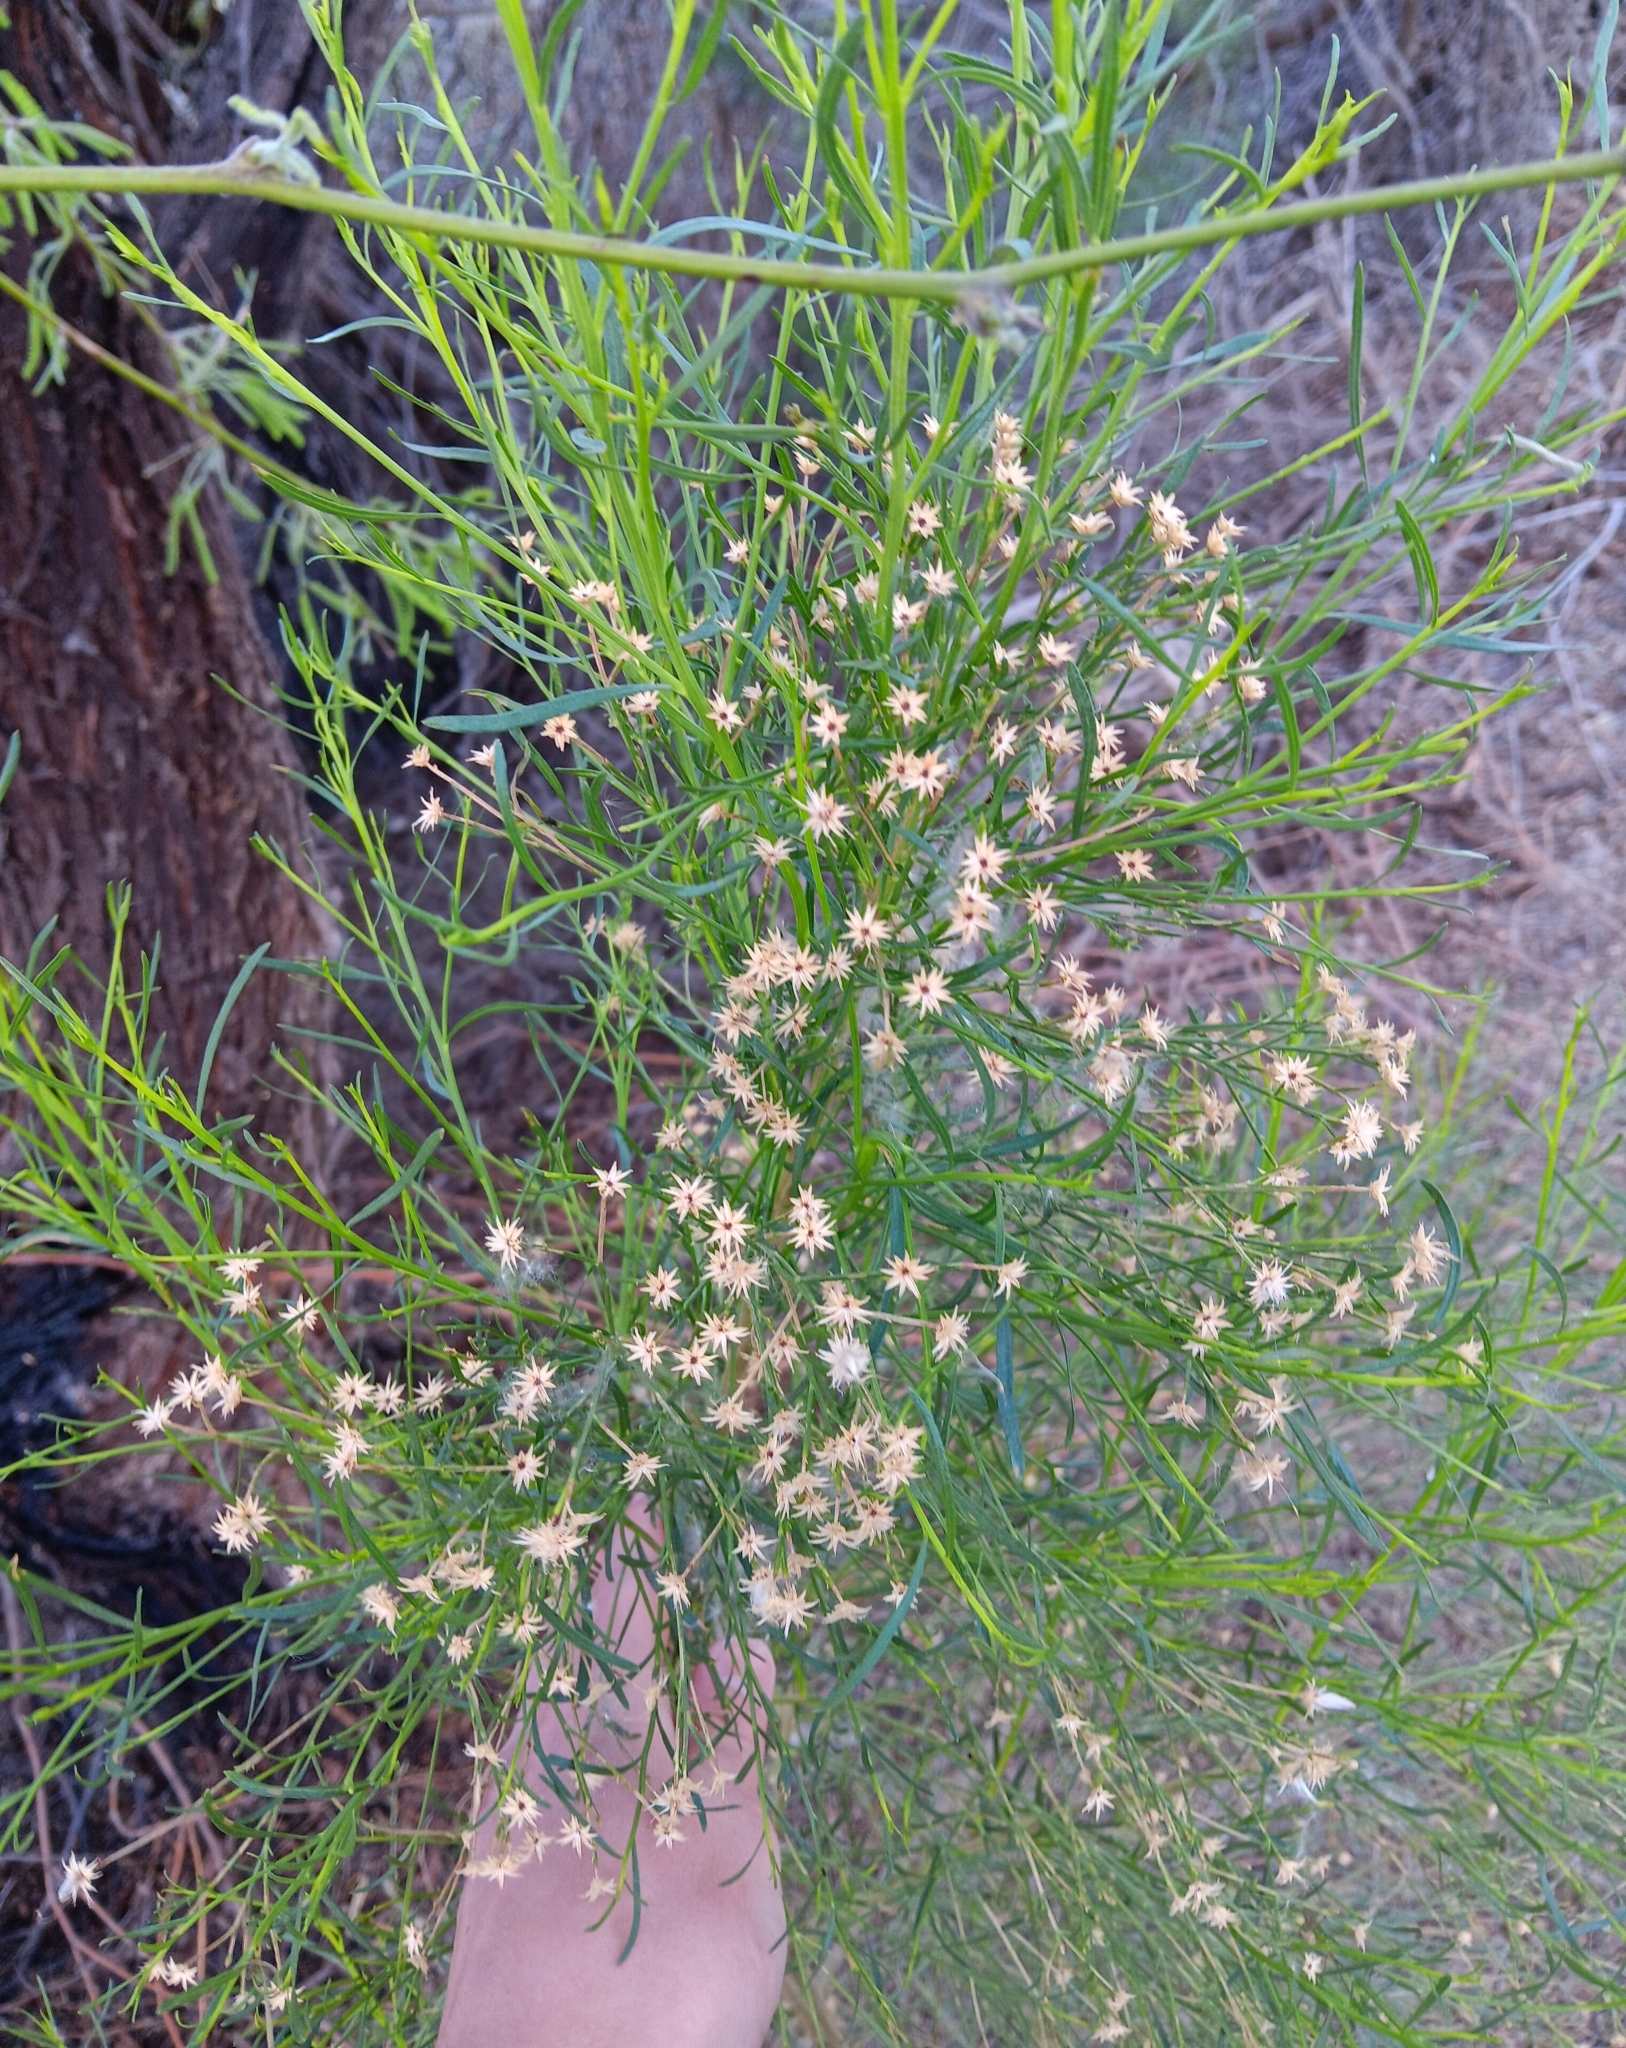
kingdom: Plantae
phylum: Tracheophyta
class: Magnoliopsida
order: Asterales
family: Asteraceae
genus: Baccharis
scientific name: Baccharis sarothroides
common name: Desert-broom
